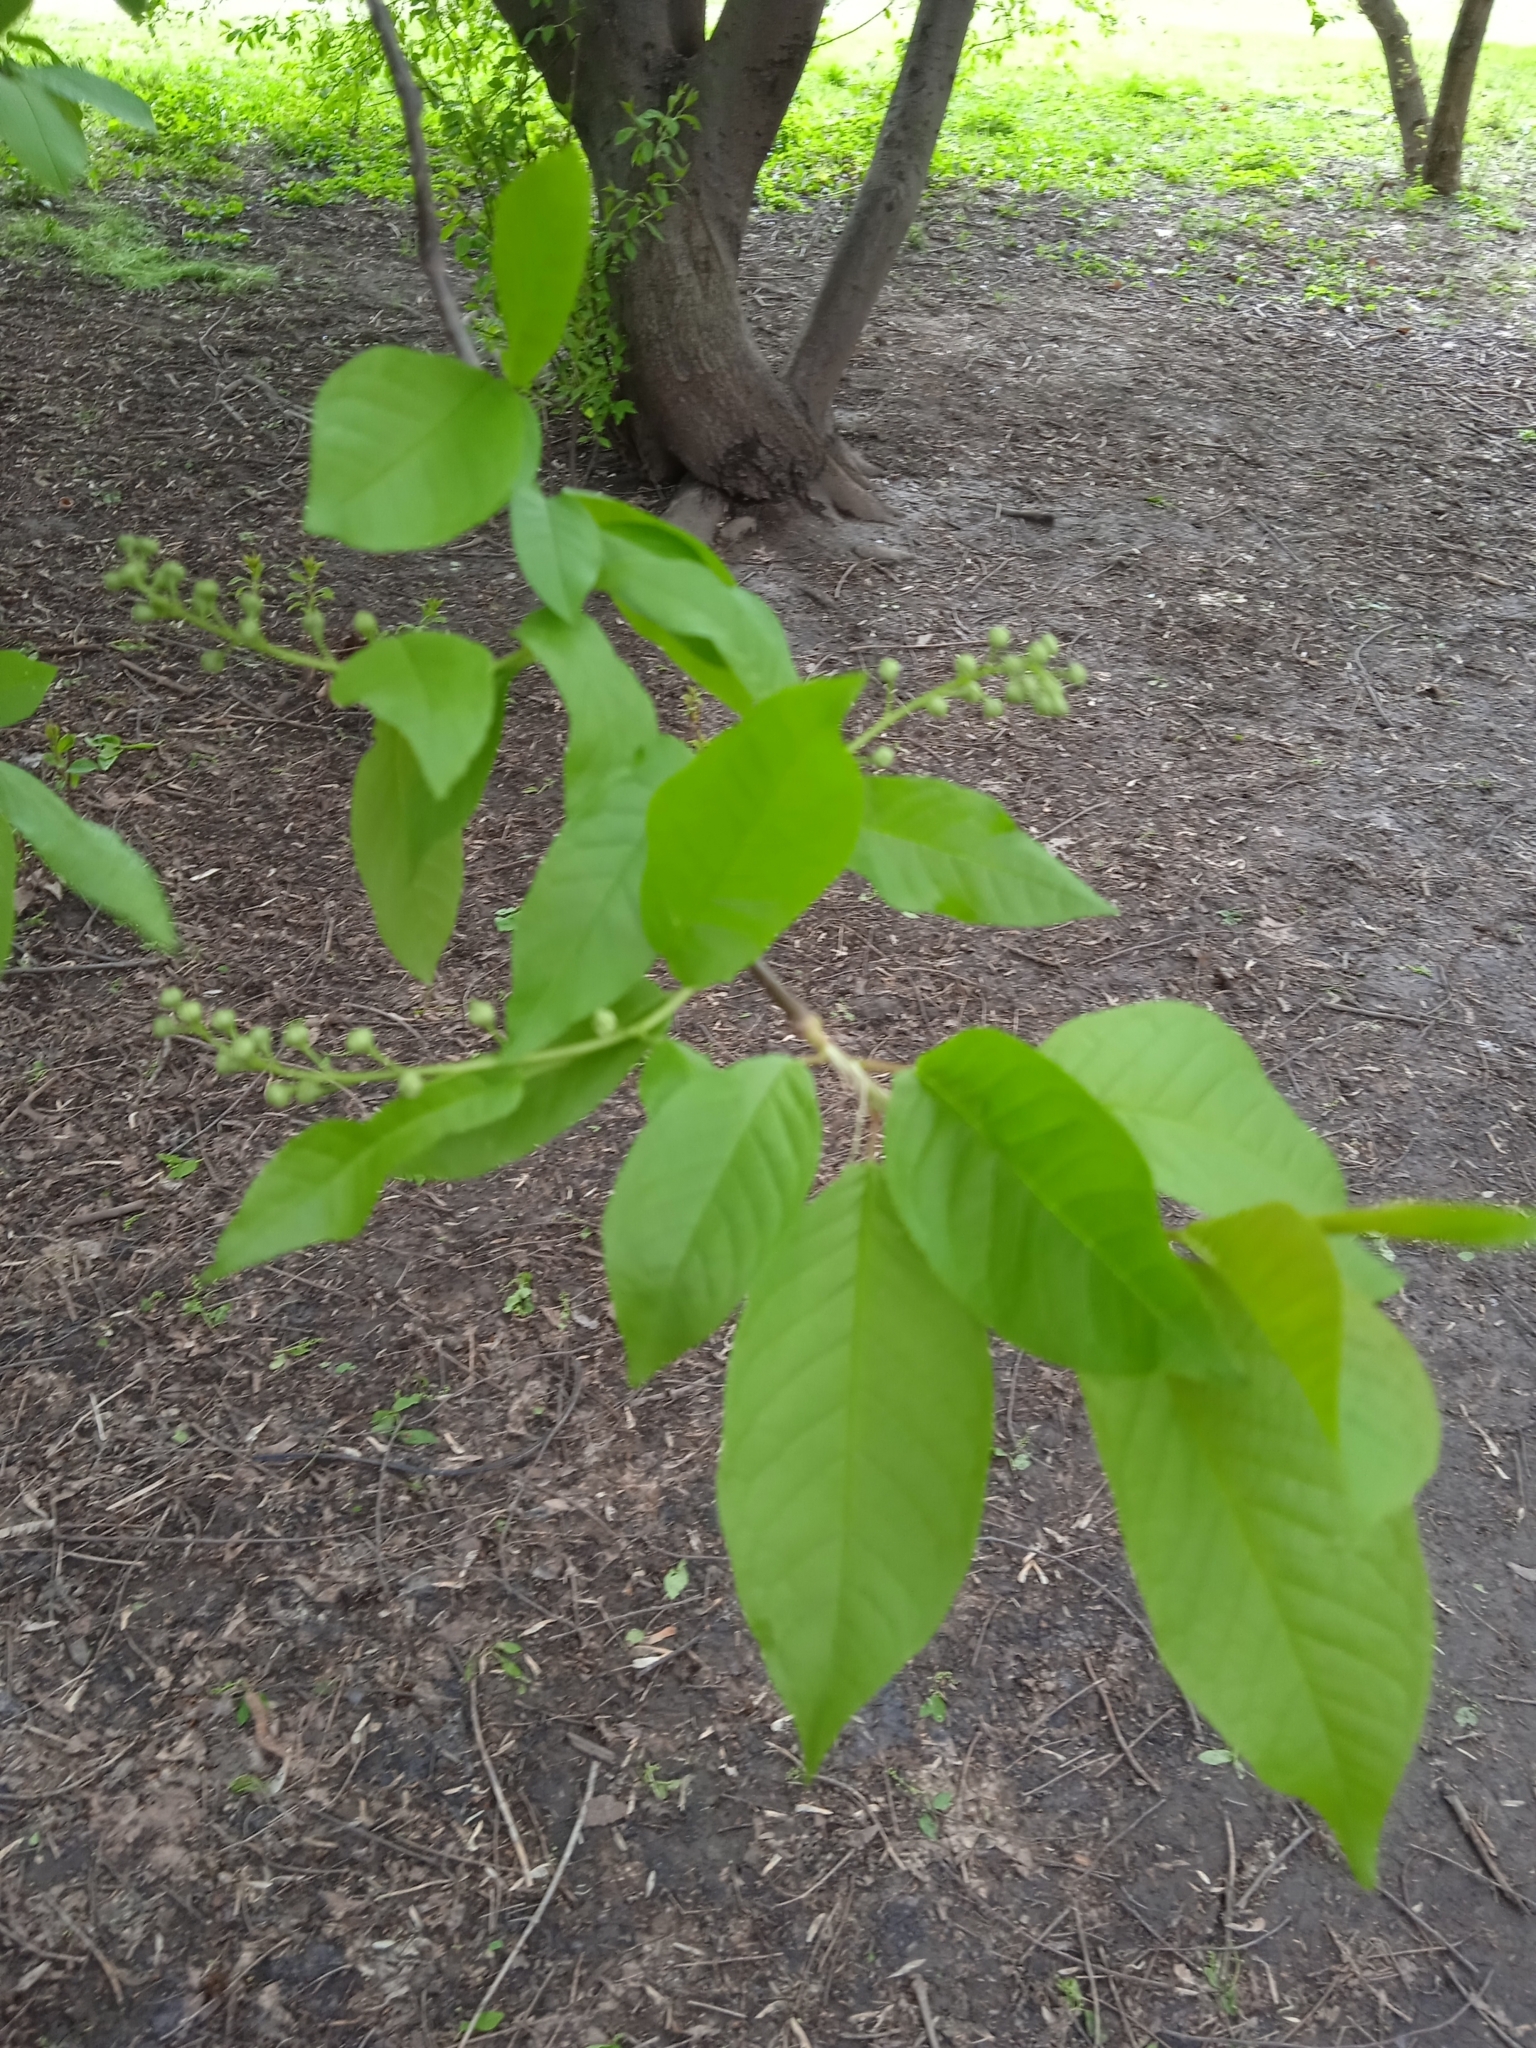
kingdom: Plantae
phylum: Tracheophyta
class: Magnoliopsida
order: Rosales
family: Rosaceae
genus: Prunus
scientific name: Prunus padus
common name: Bird cherry
